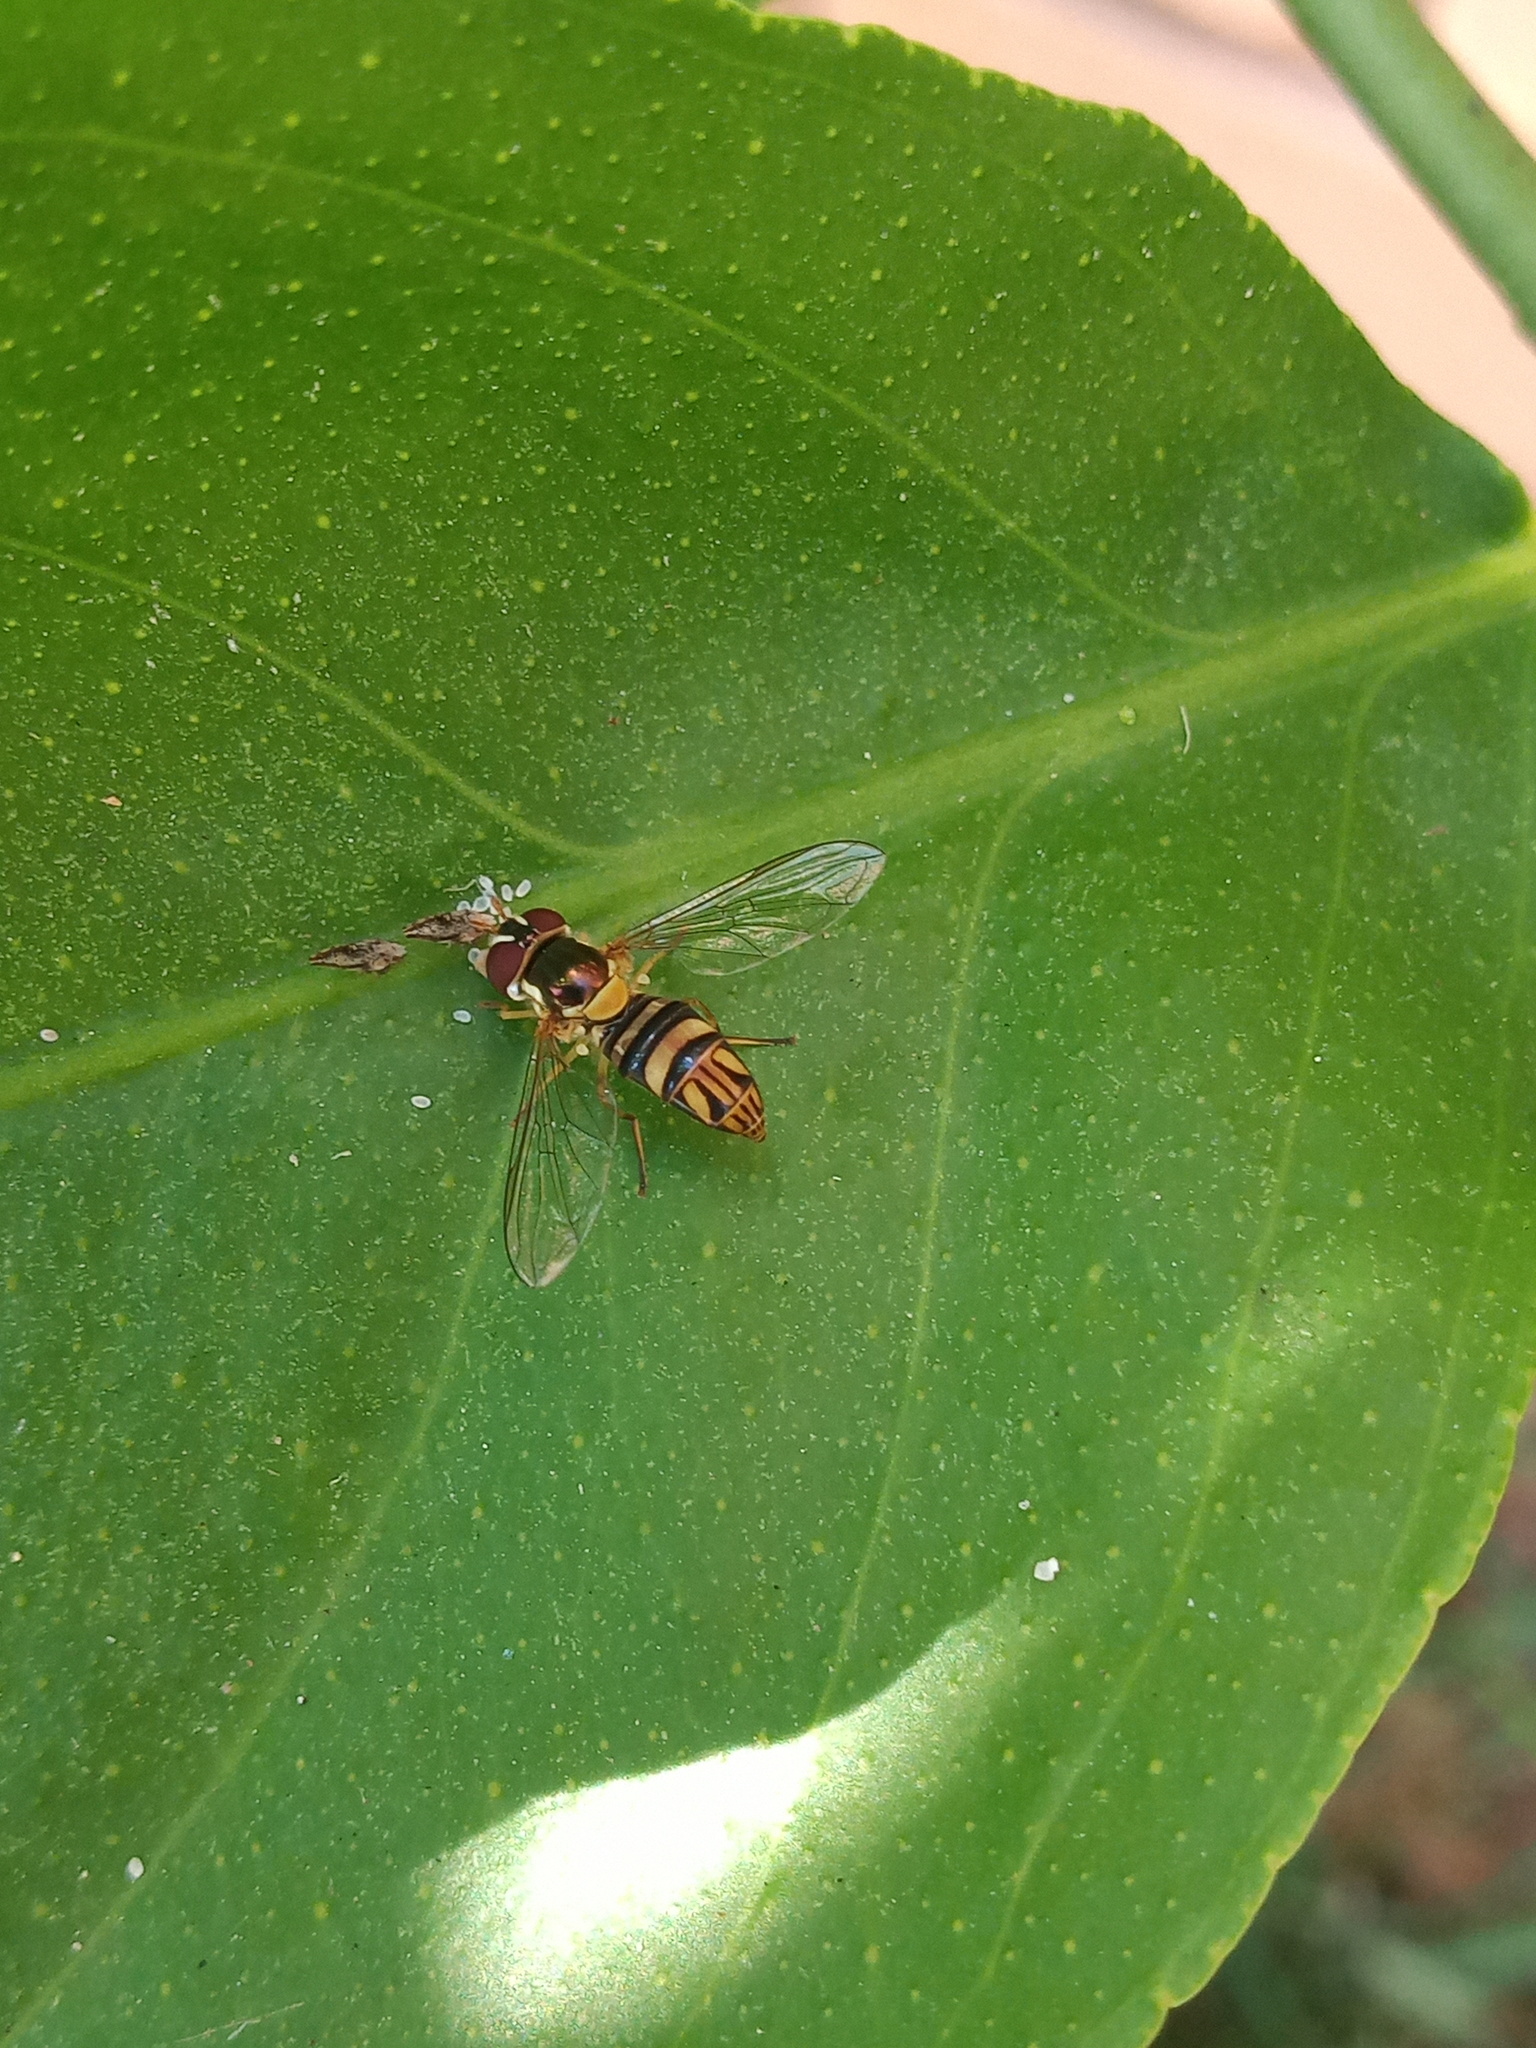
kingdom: Animalia
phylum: Arthropoda
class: Insecta
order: Diptera
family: Syrphidae
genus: Allograpta
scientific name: Allograpta obliqua
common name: Common oblique syrphid
